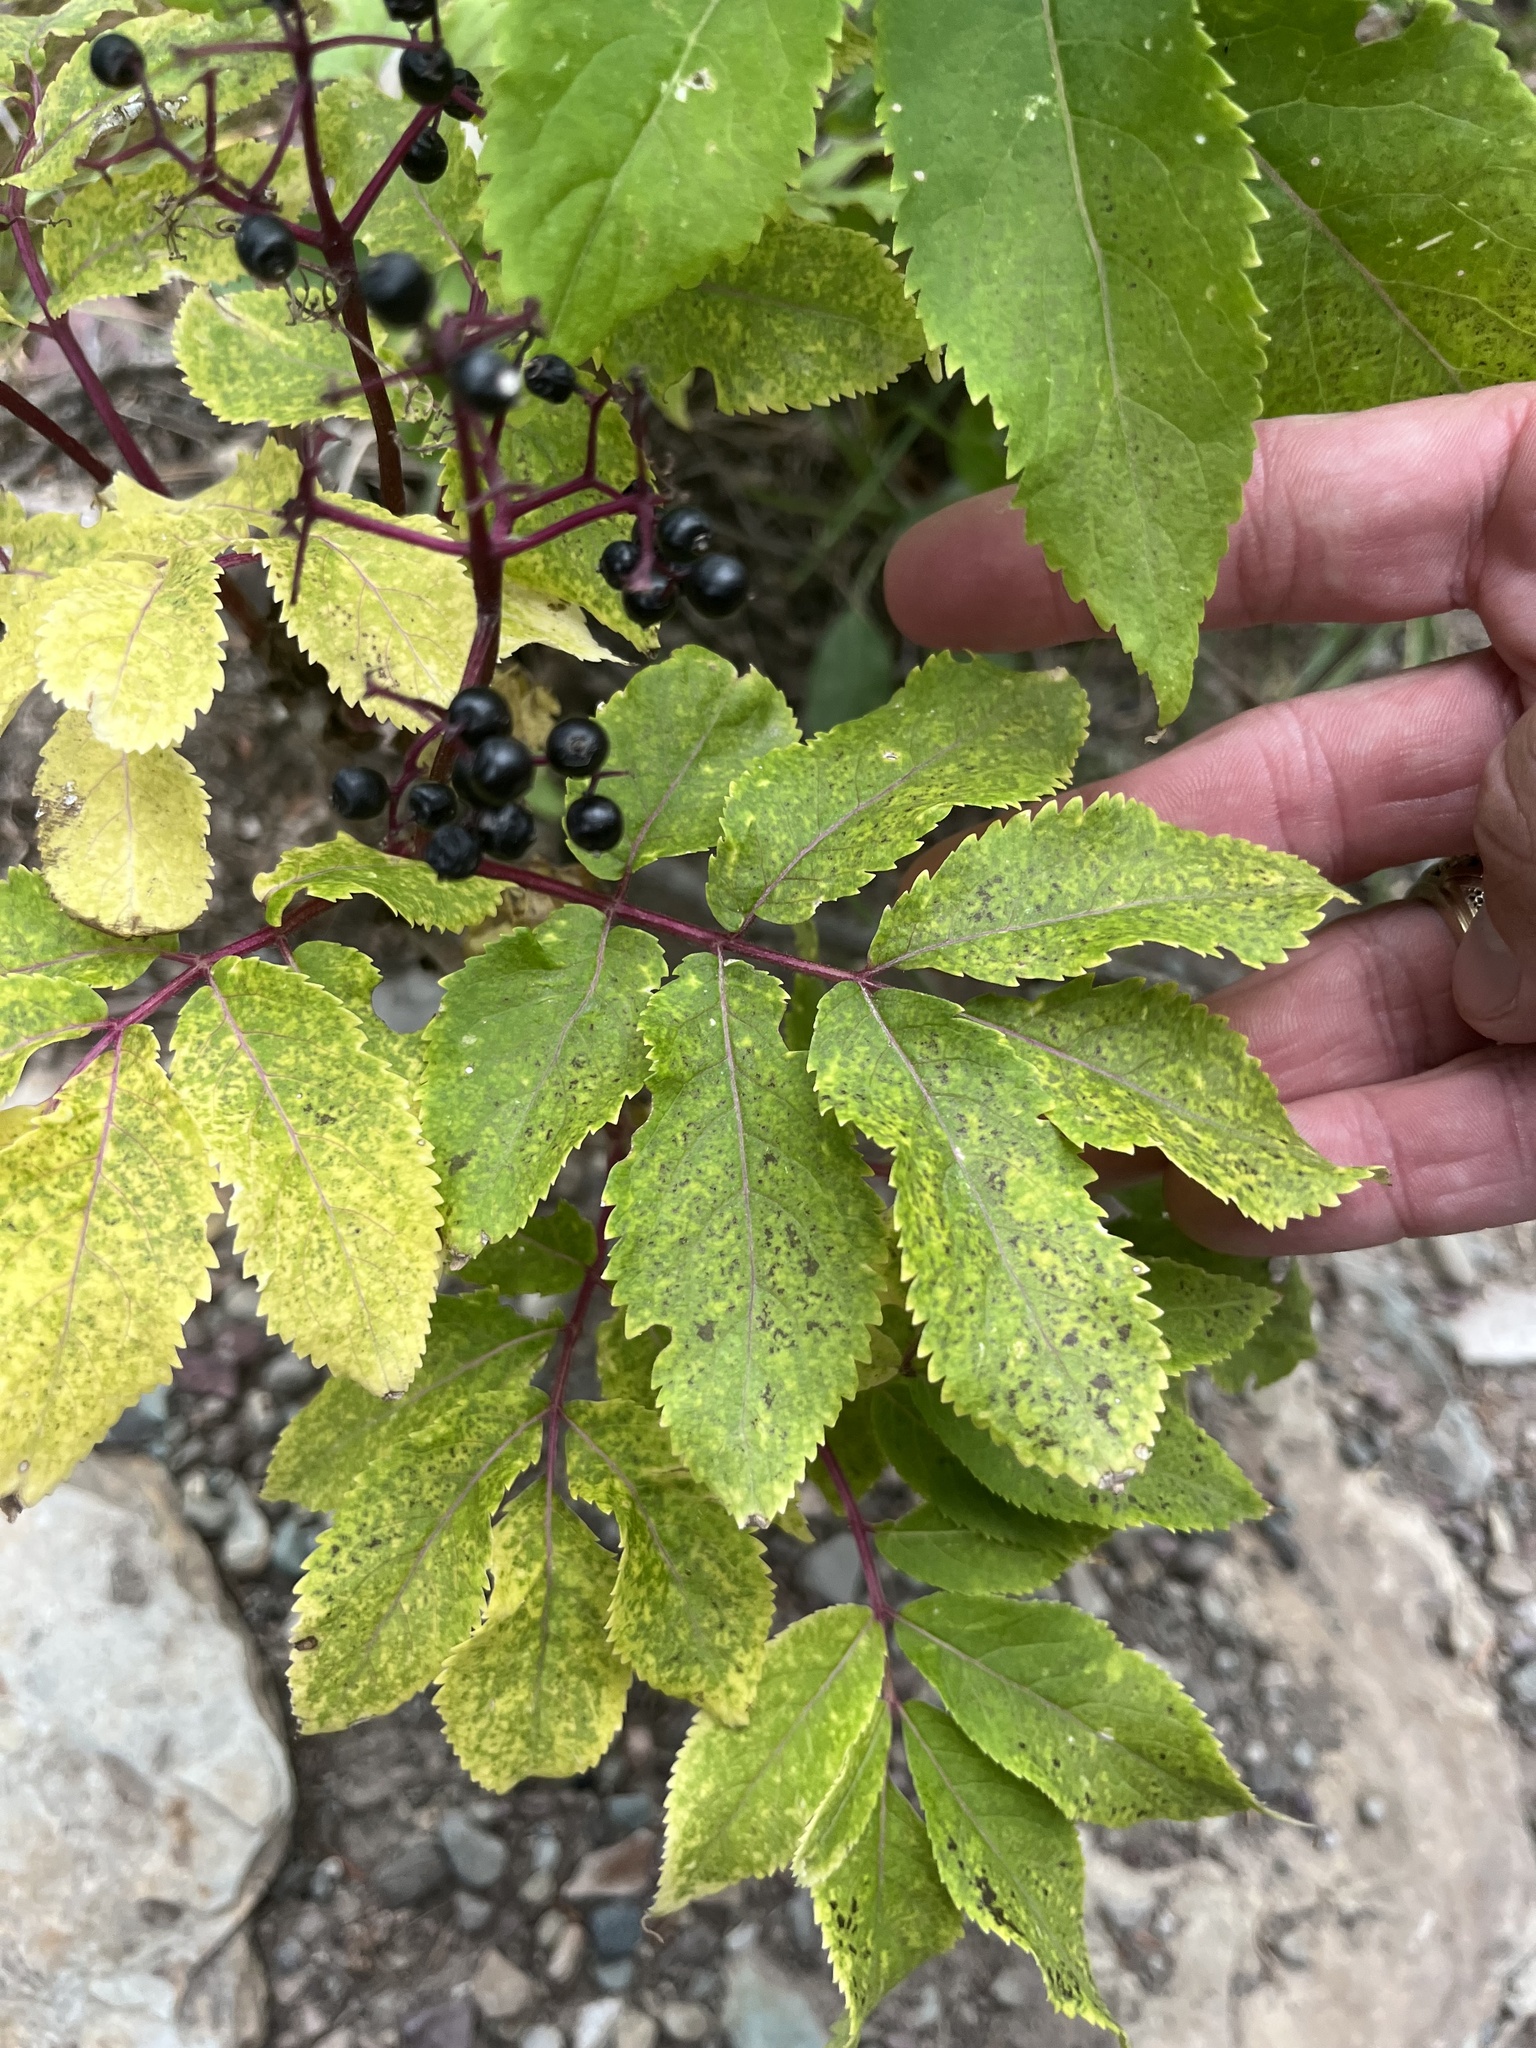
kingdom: Plantae
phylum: Tracheophyta
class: Magnoliopsida
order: Dipsacales
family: Viburnaceae
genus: Sambucus
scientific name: Sambucus racemosa
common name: Red-berried elder
